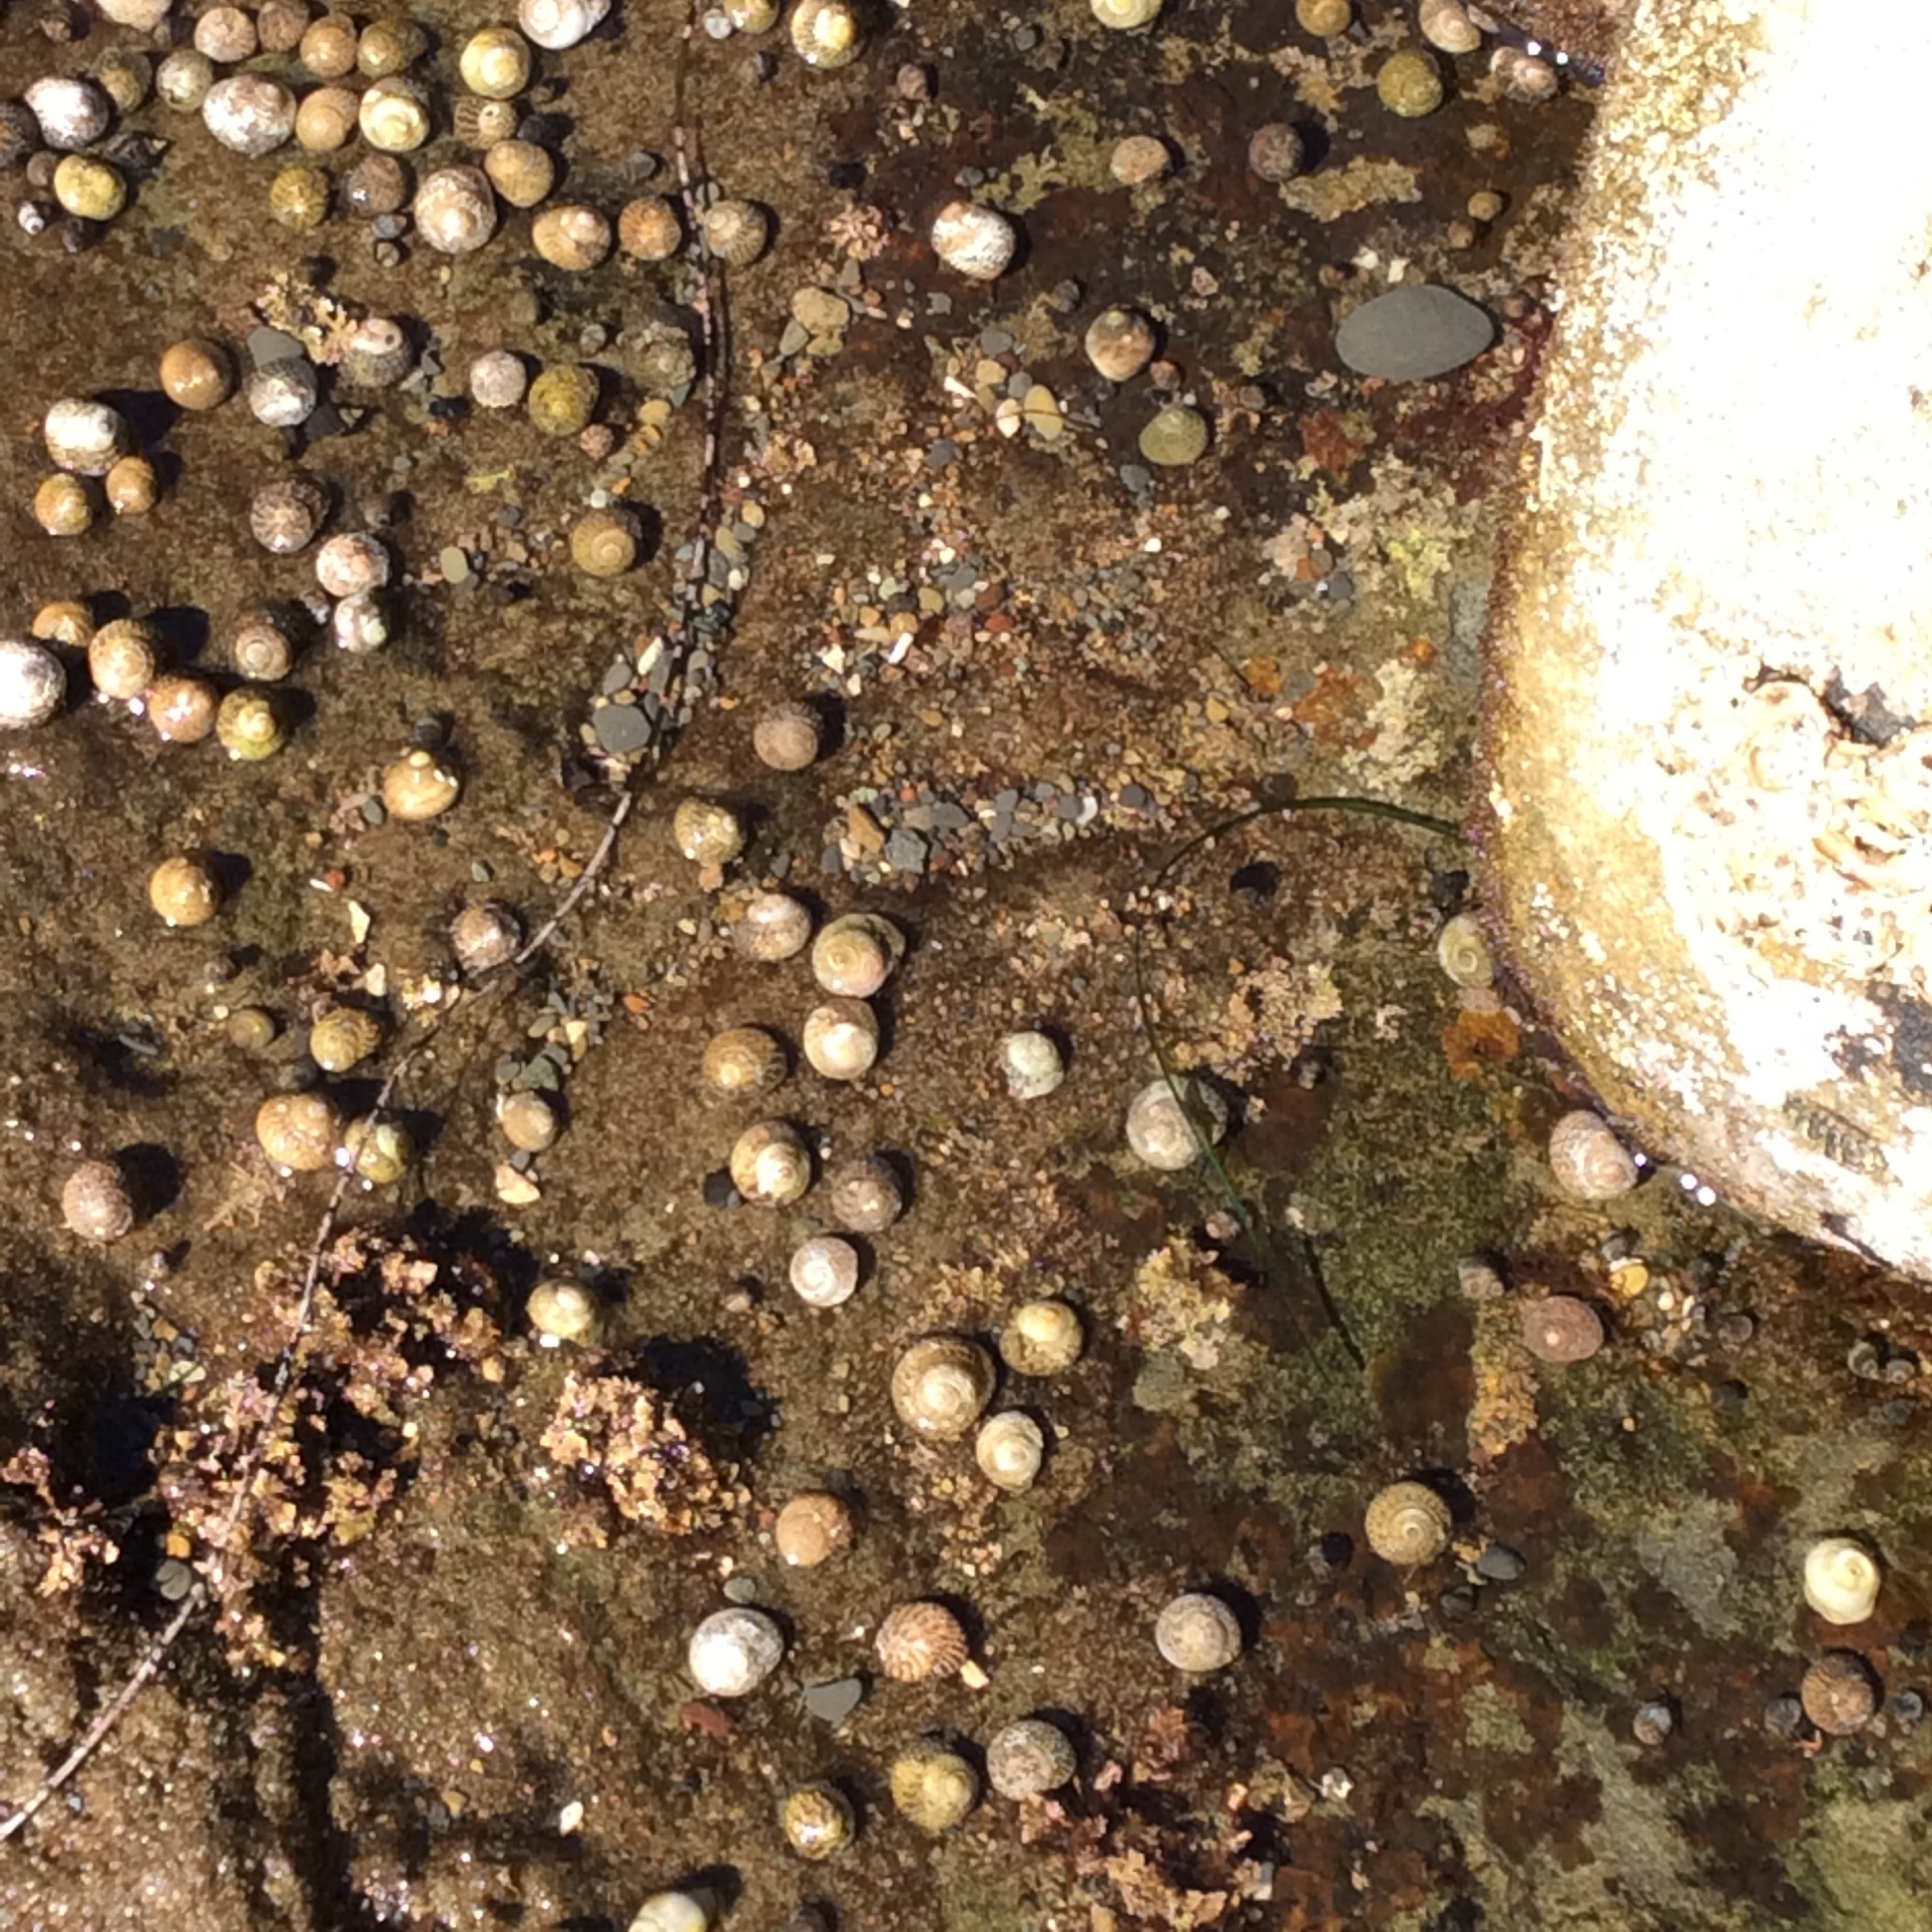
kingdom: Animalia
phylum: Mollusca
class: Gastropoda
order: Trochida
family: Tegulidae
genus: Tegula
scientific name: Tegula eiseni
